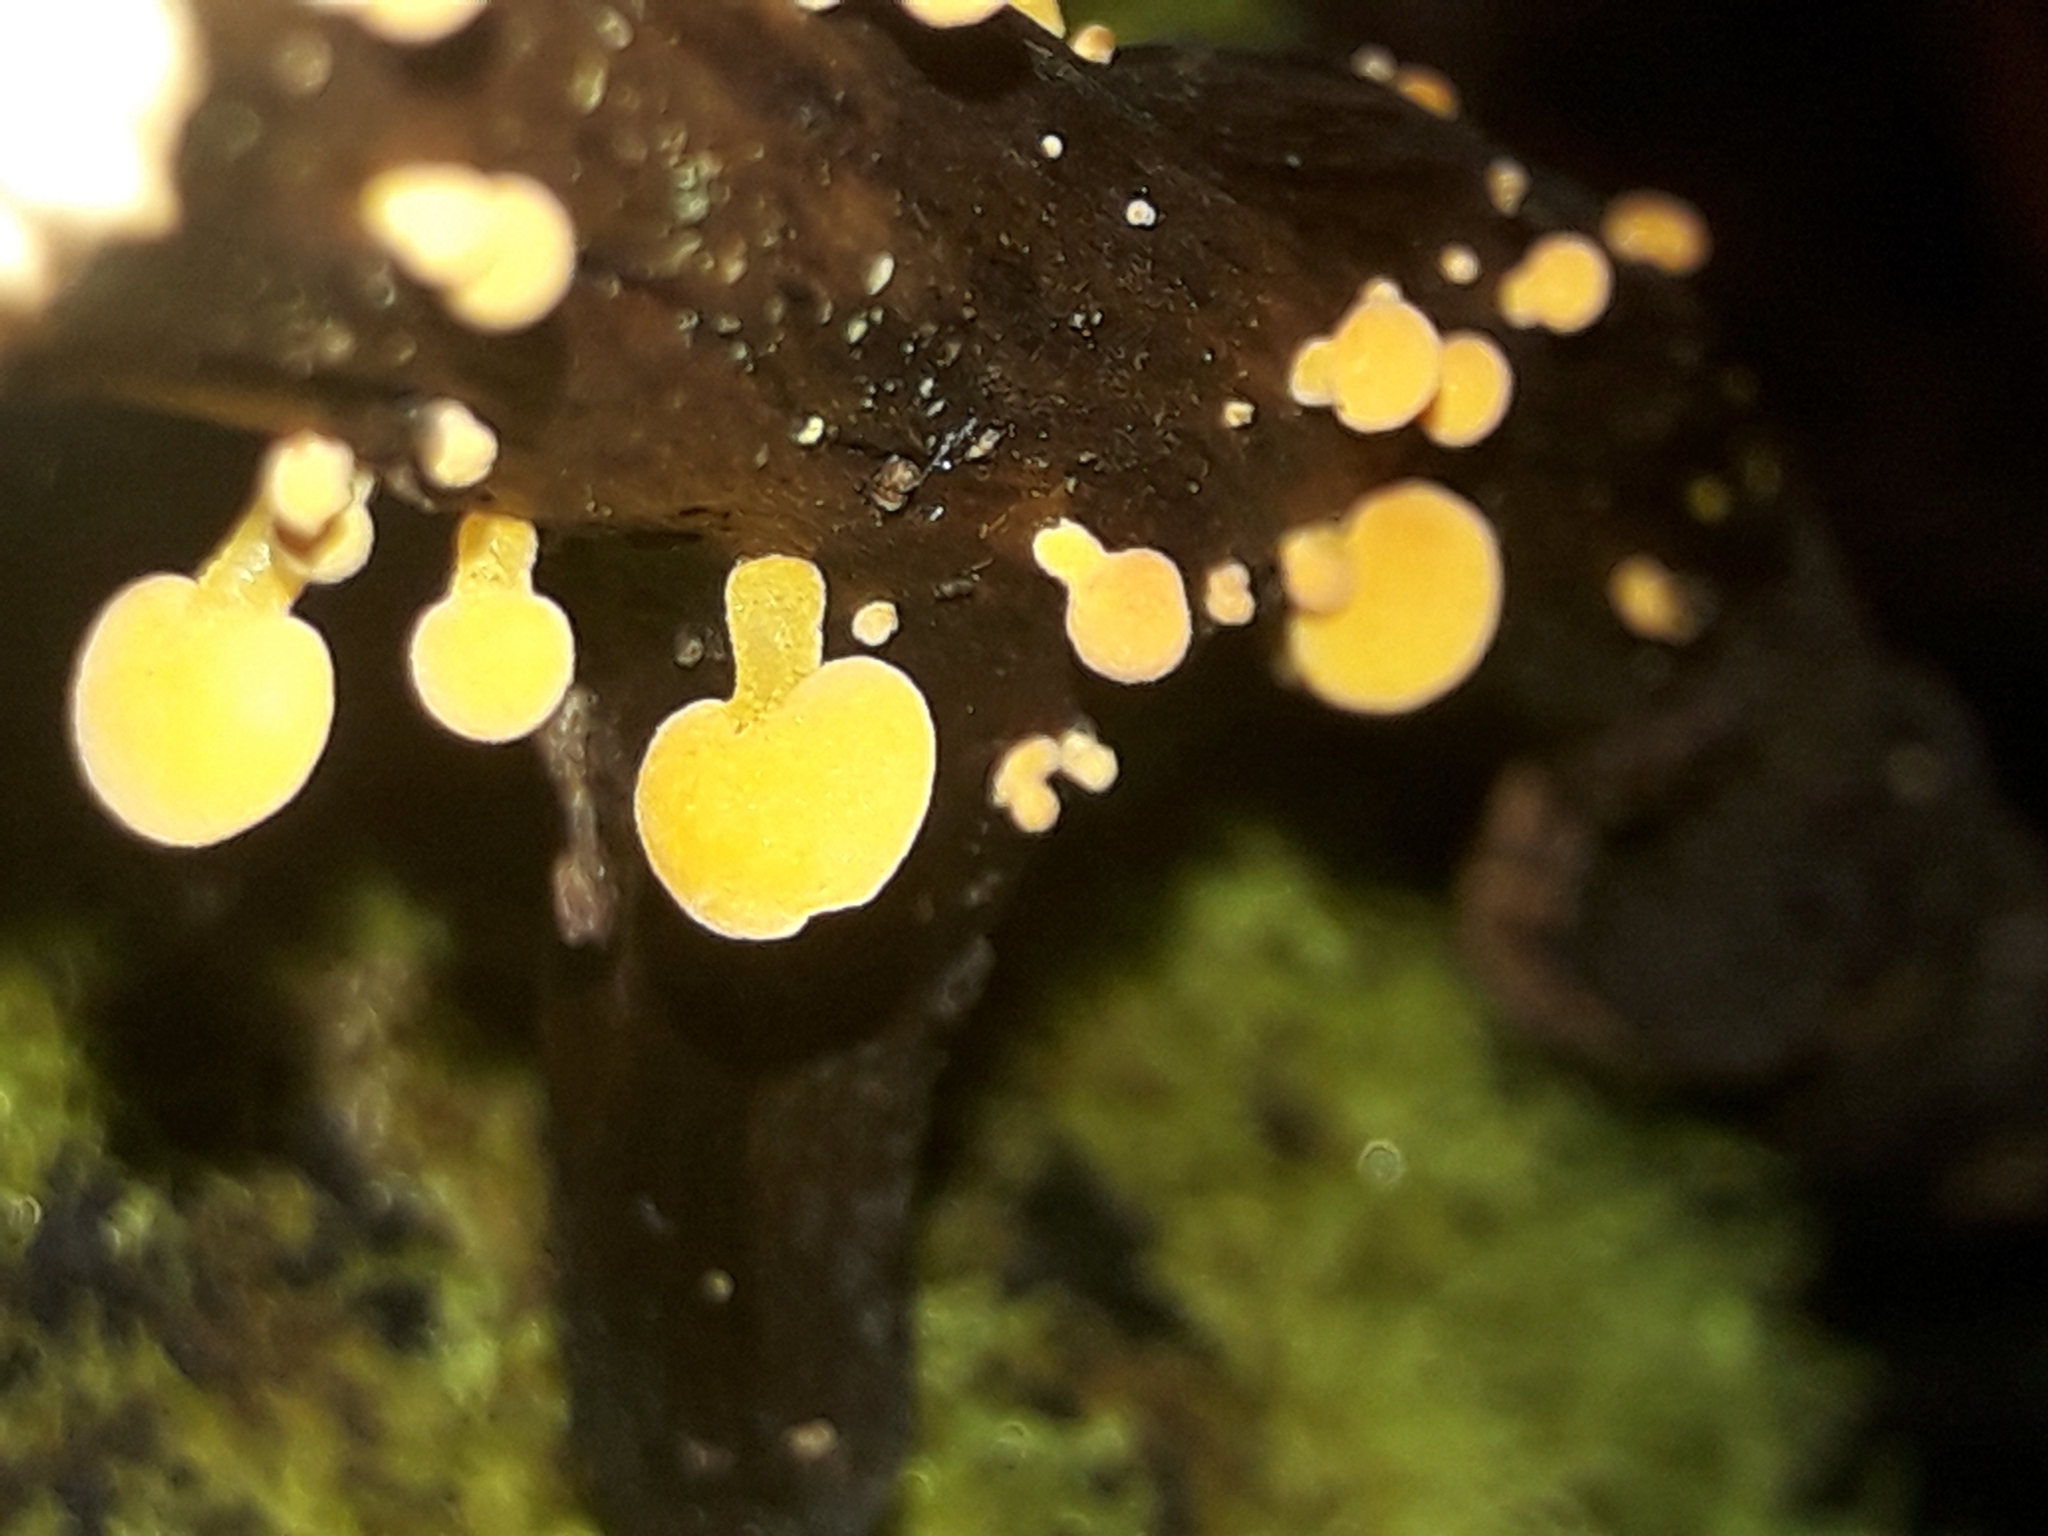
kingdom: Fungi
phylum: Basidiomycota
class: Agaricomycetes
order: Agaricales
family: Mycenaceae
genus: Favolaschia
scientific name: Favolaschia claudopus
